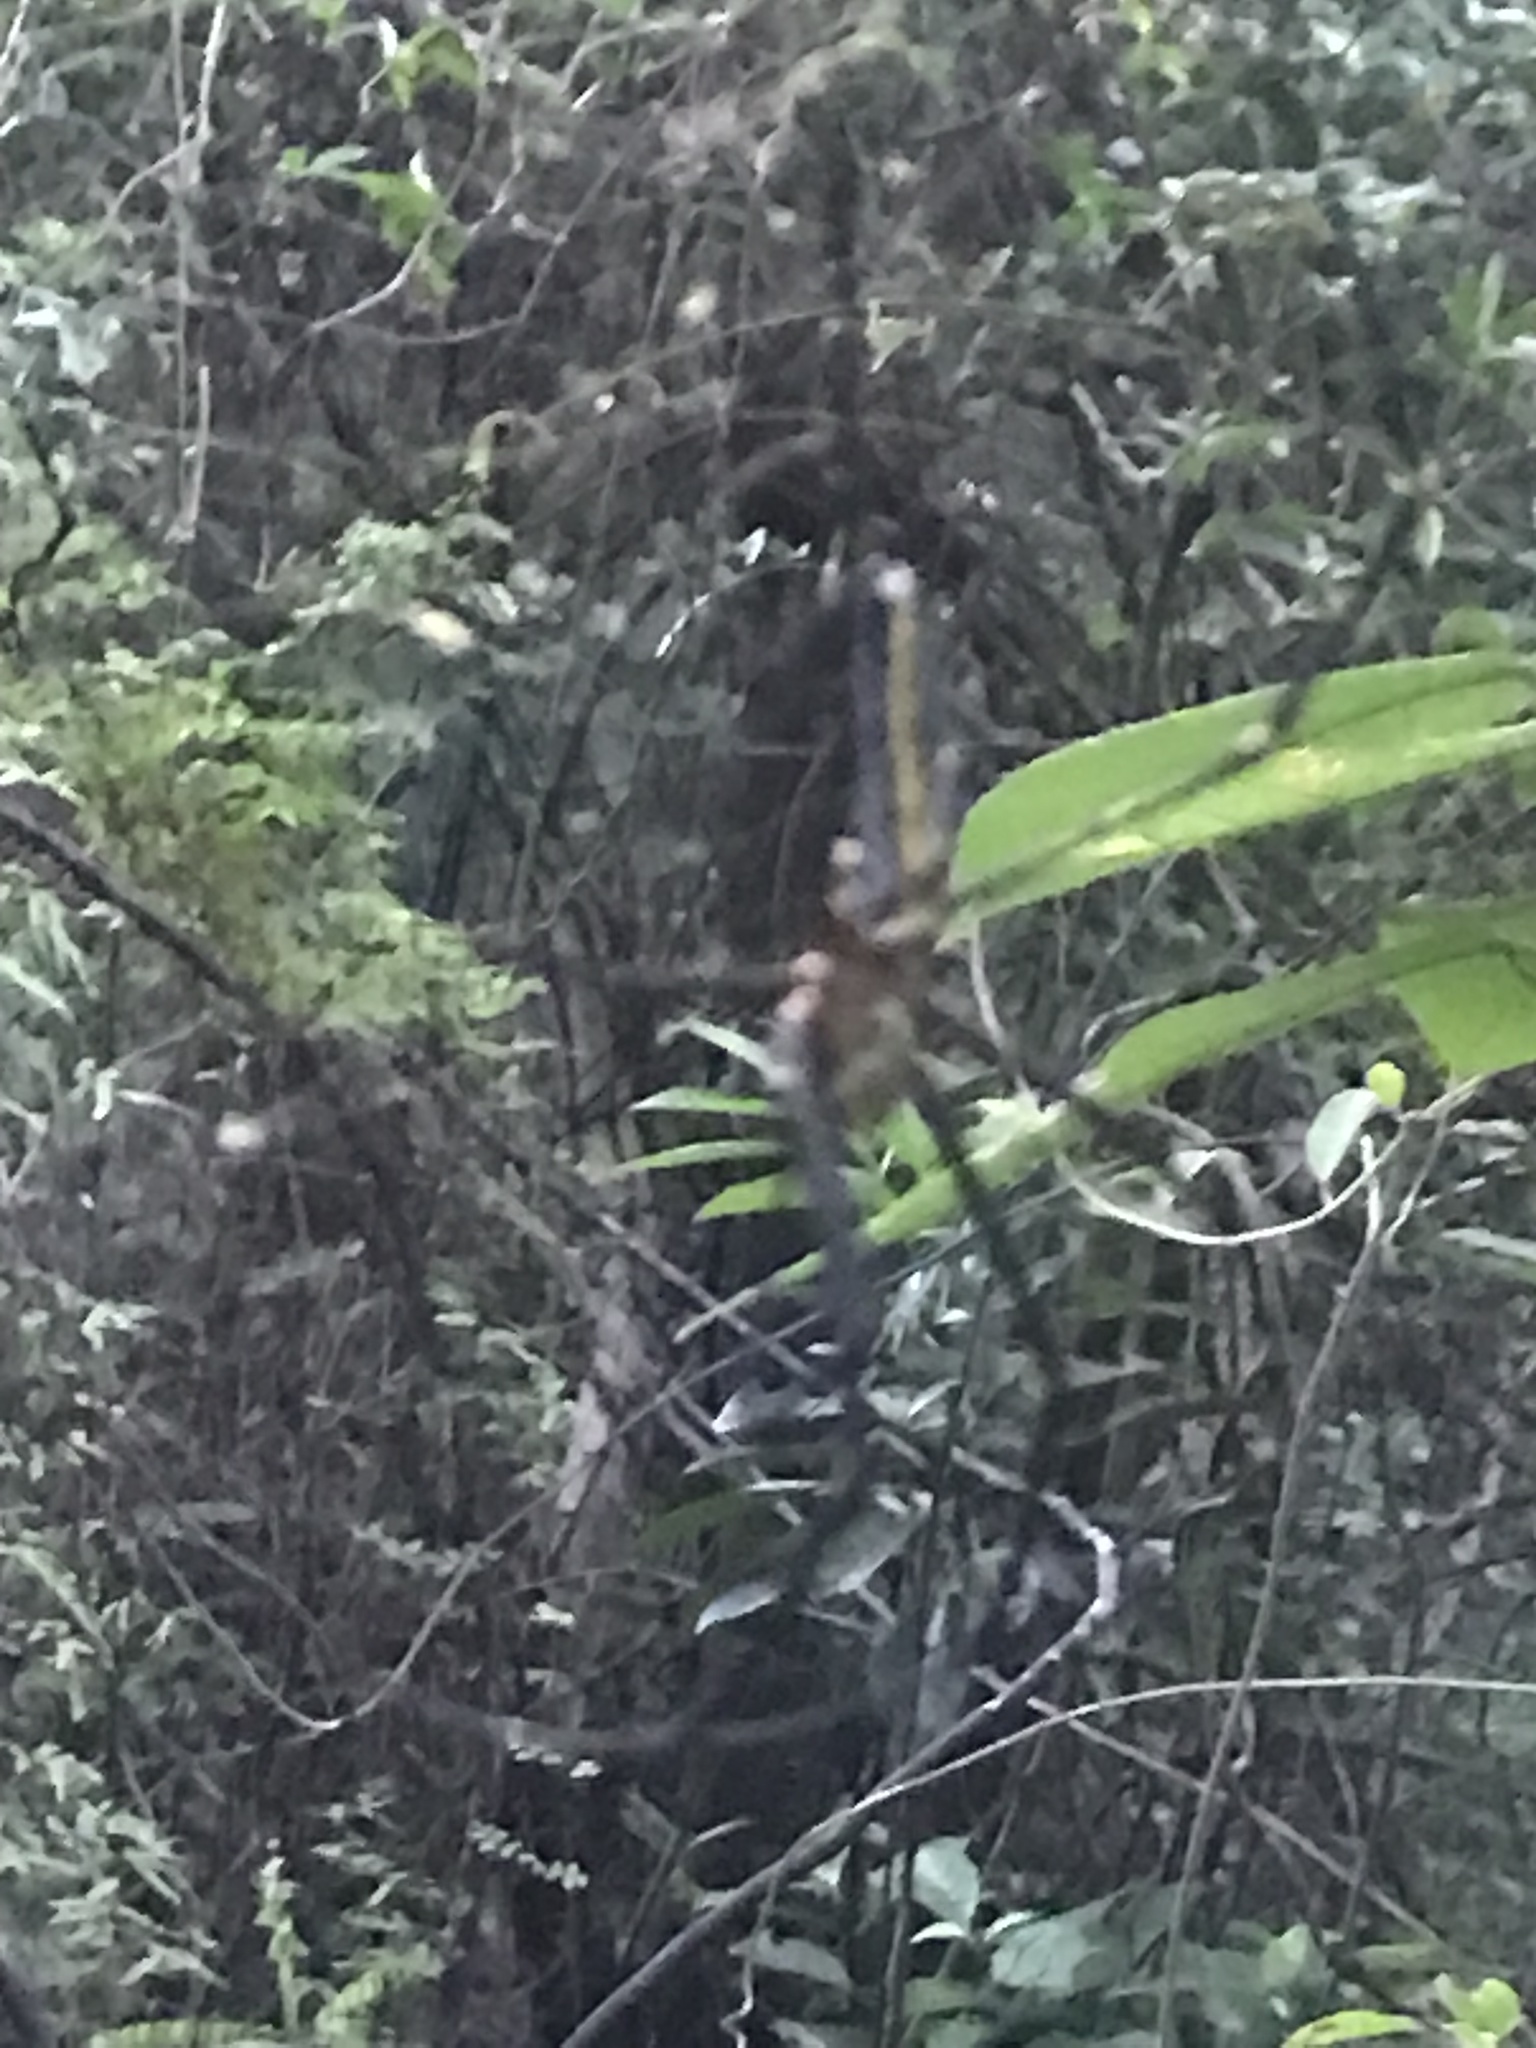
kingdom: Animalia
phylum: Arthropoda
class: Arachnida
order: Araneae
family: Araneidae
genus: Nephila
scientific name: Nephila pilipes
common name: Giant golden orb weaver
